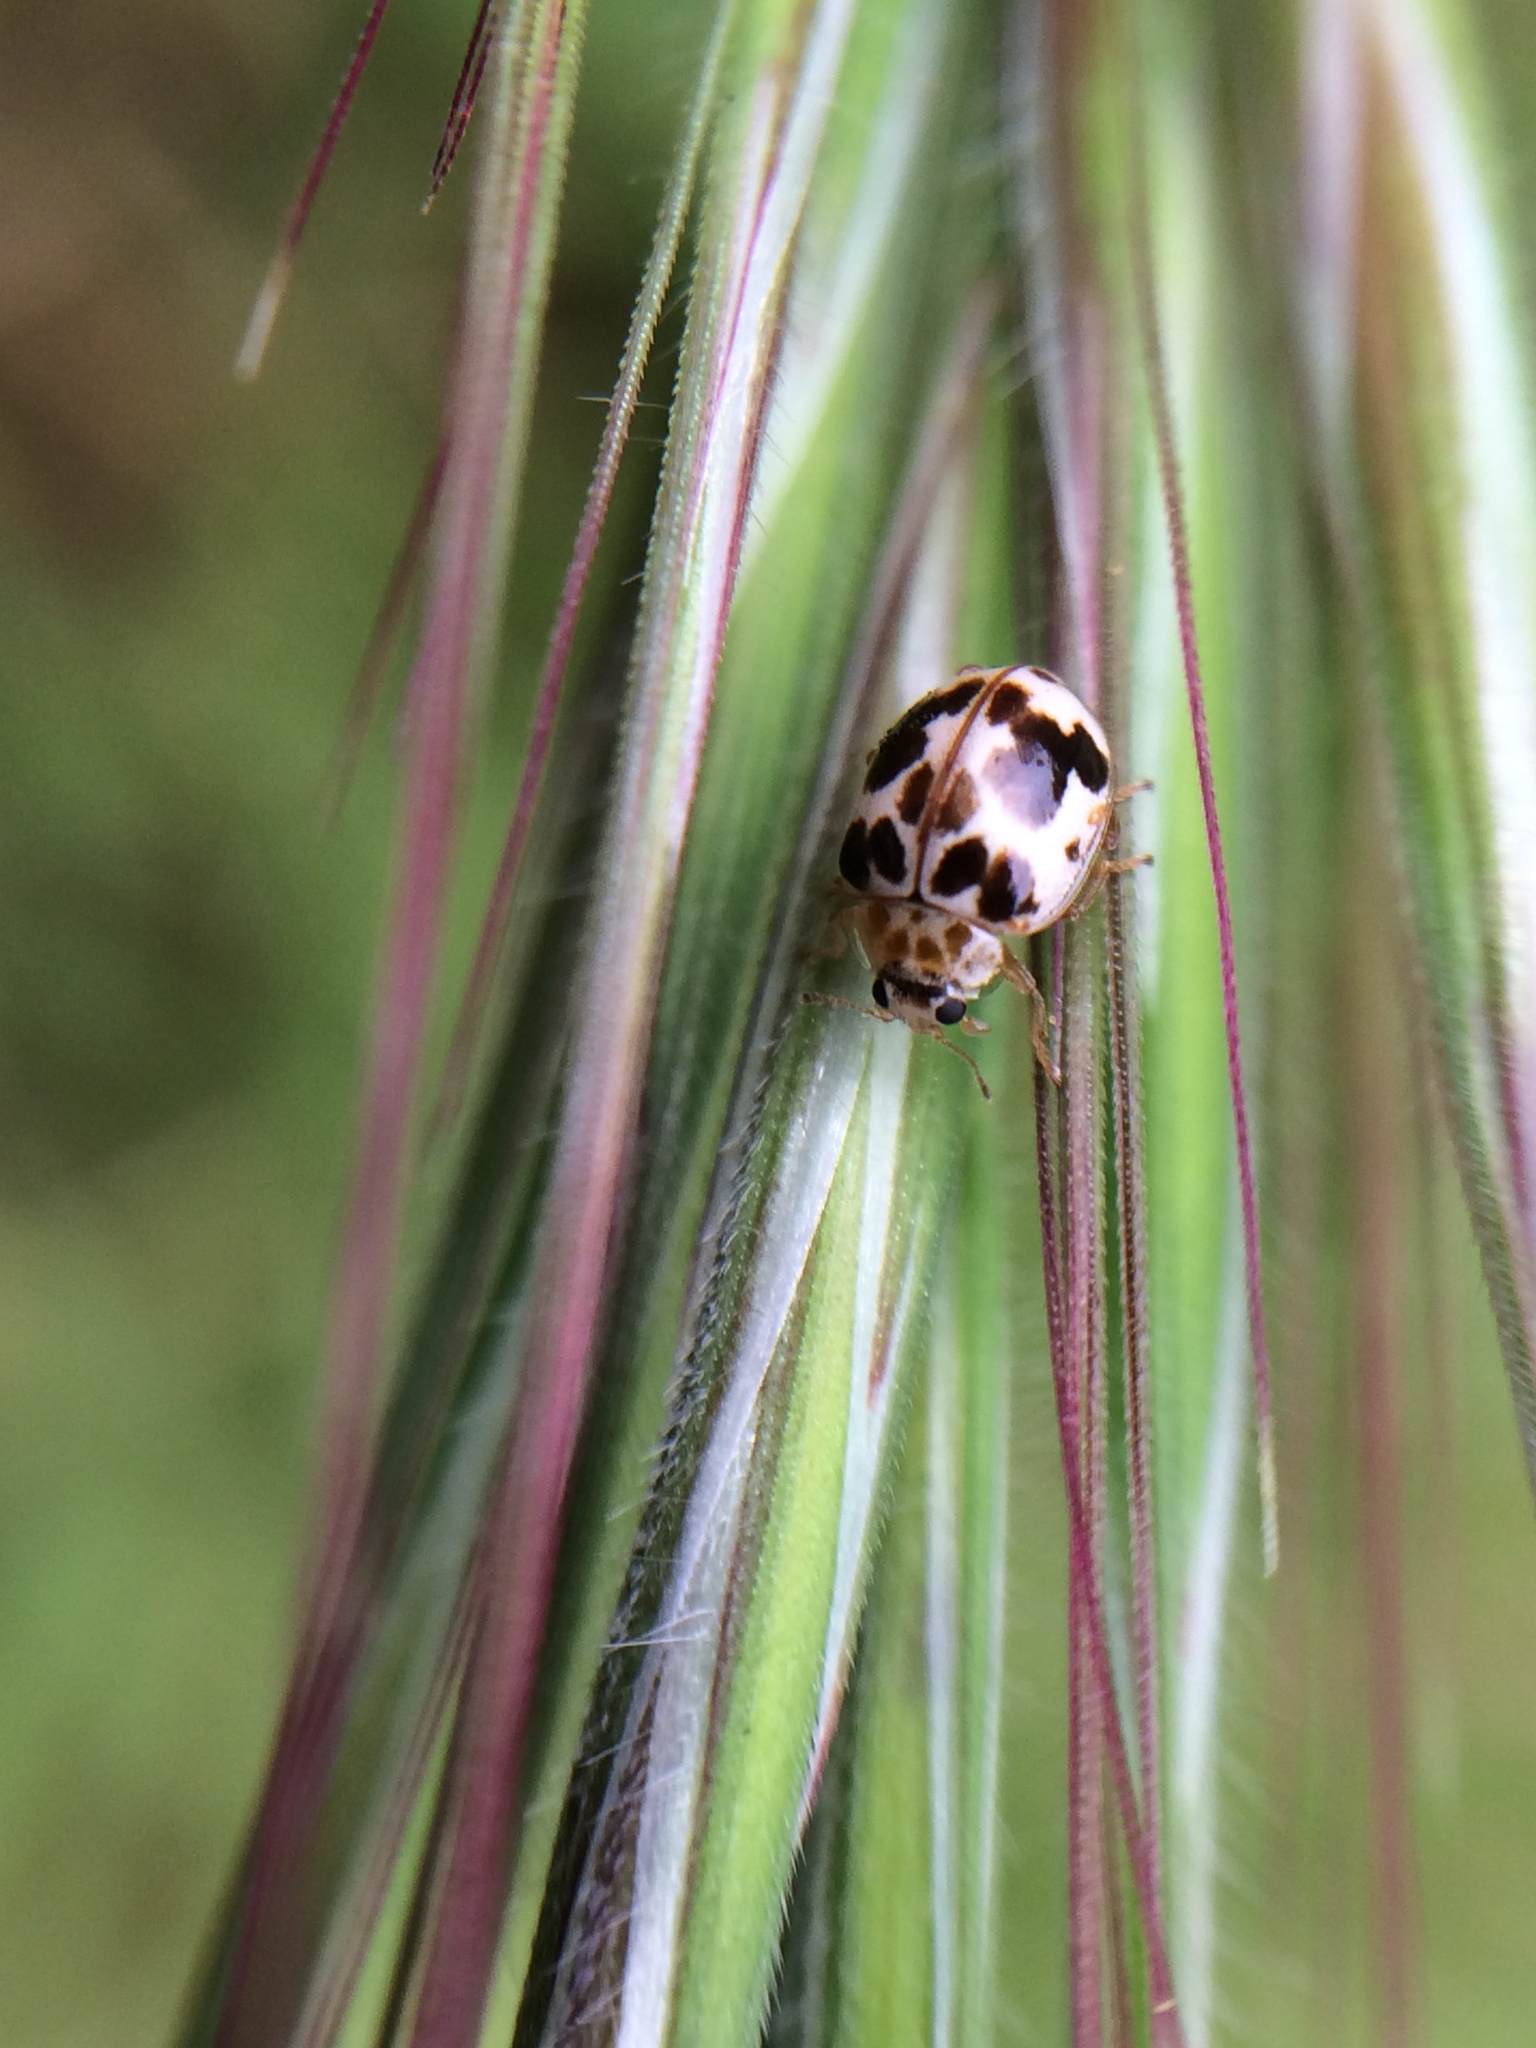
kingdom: Animalia
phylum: Arthropoda
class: Insecta
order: Coleoptera
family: Coccinellidae
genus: Psyllobora
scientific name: Psyllobora borealis
